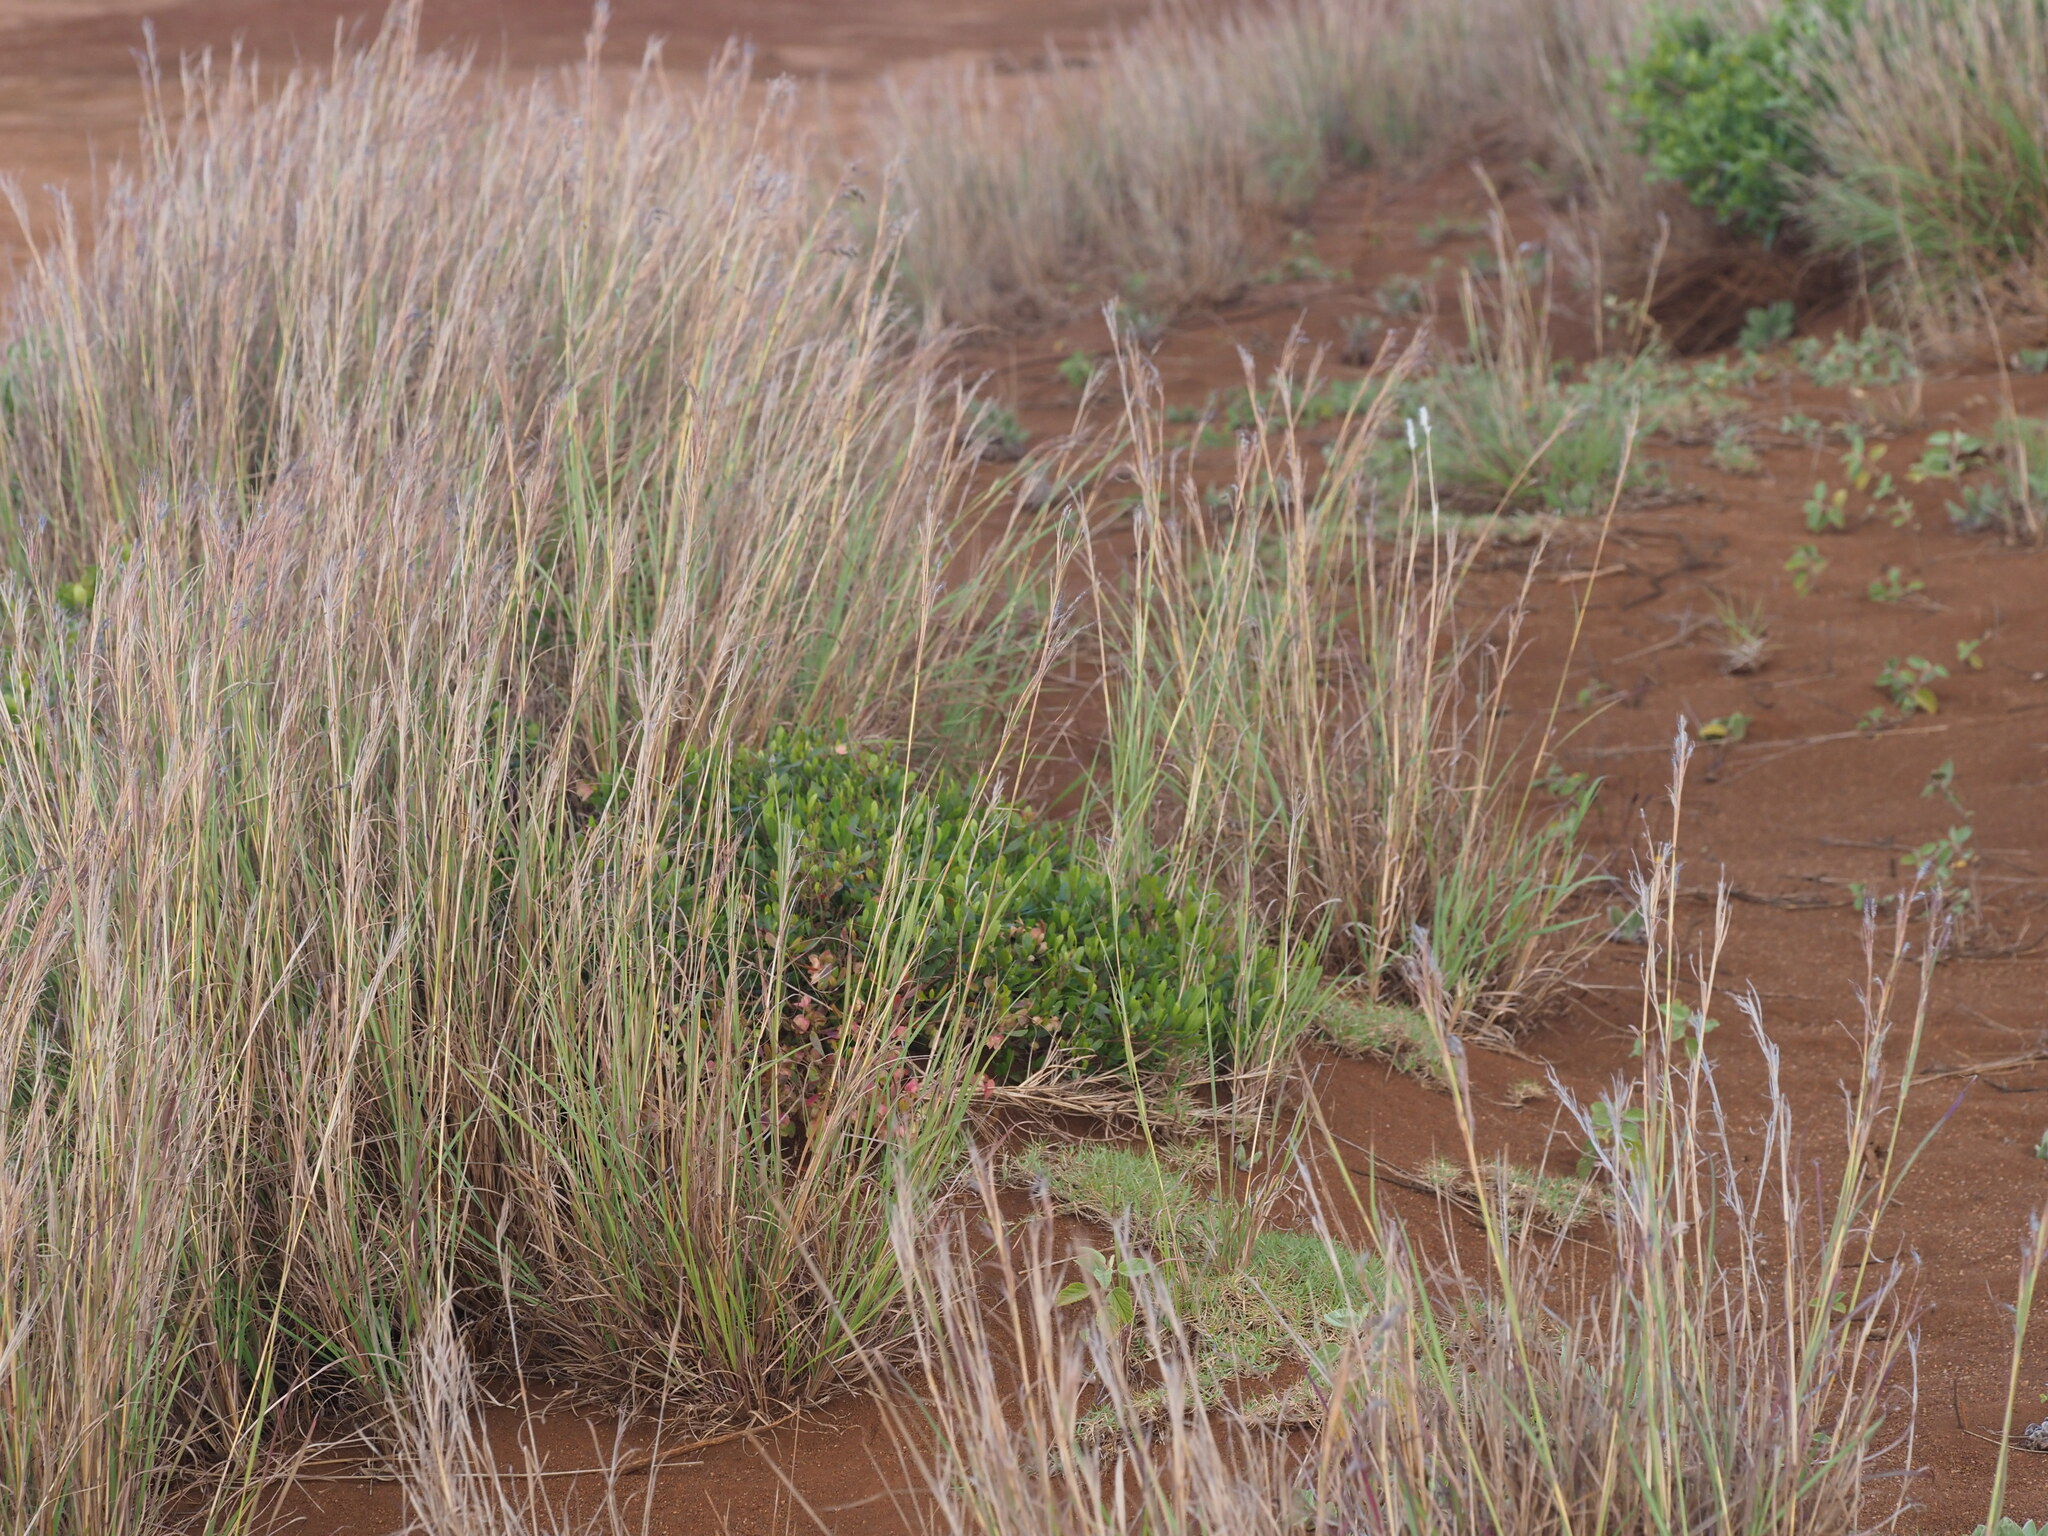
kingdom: Plantae
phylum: Tracheophyta
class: Magnoliopsida
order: Sapindales
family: Sapindaceae
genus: Dodonaea
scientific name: Dodonaea viscosa
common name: Hopbush
